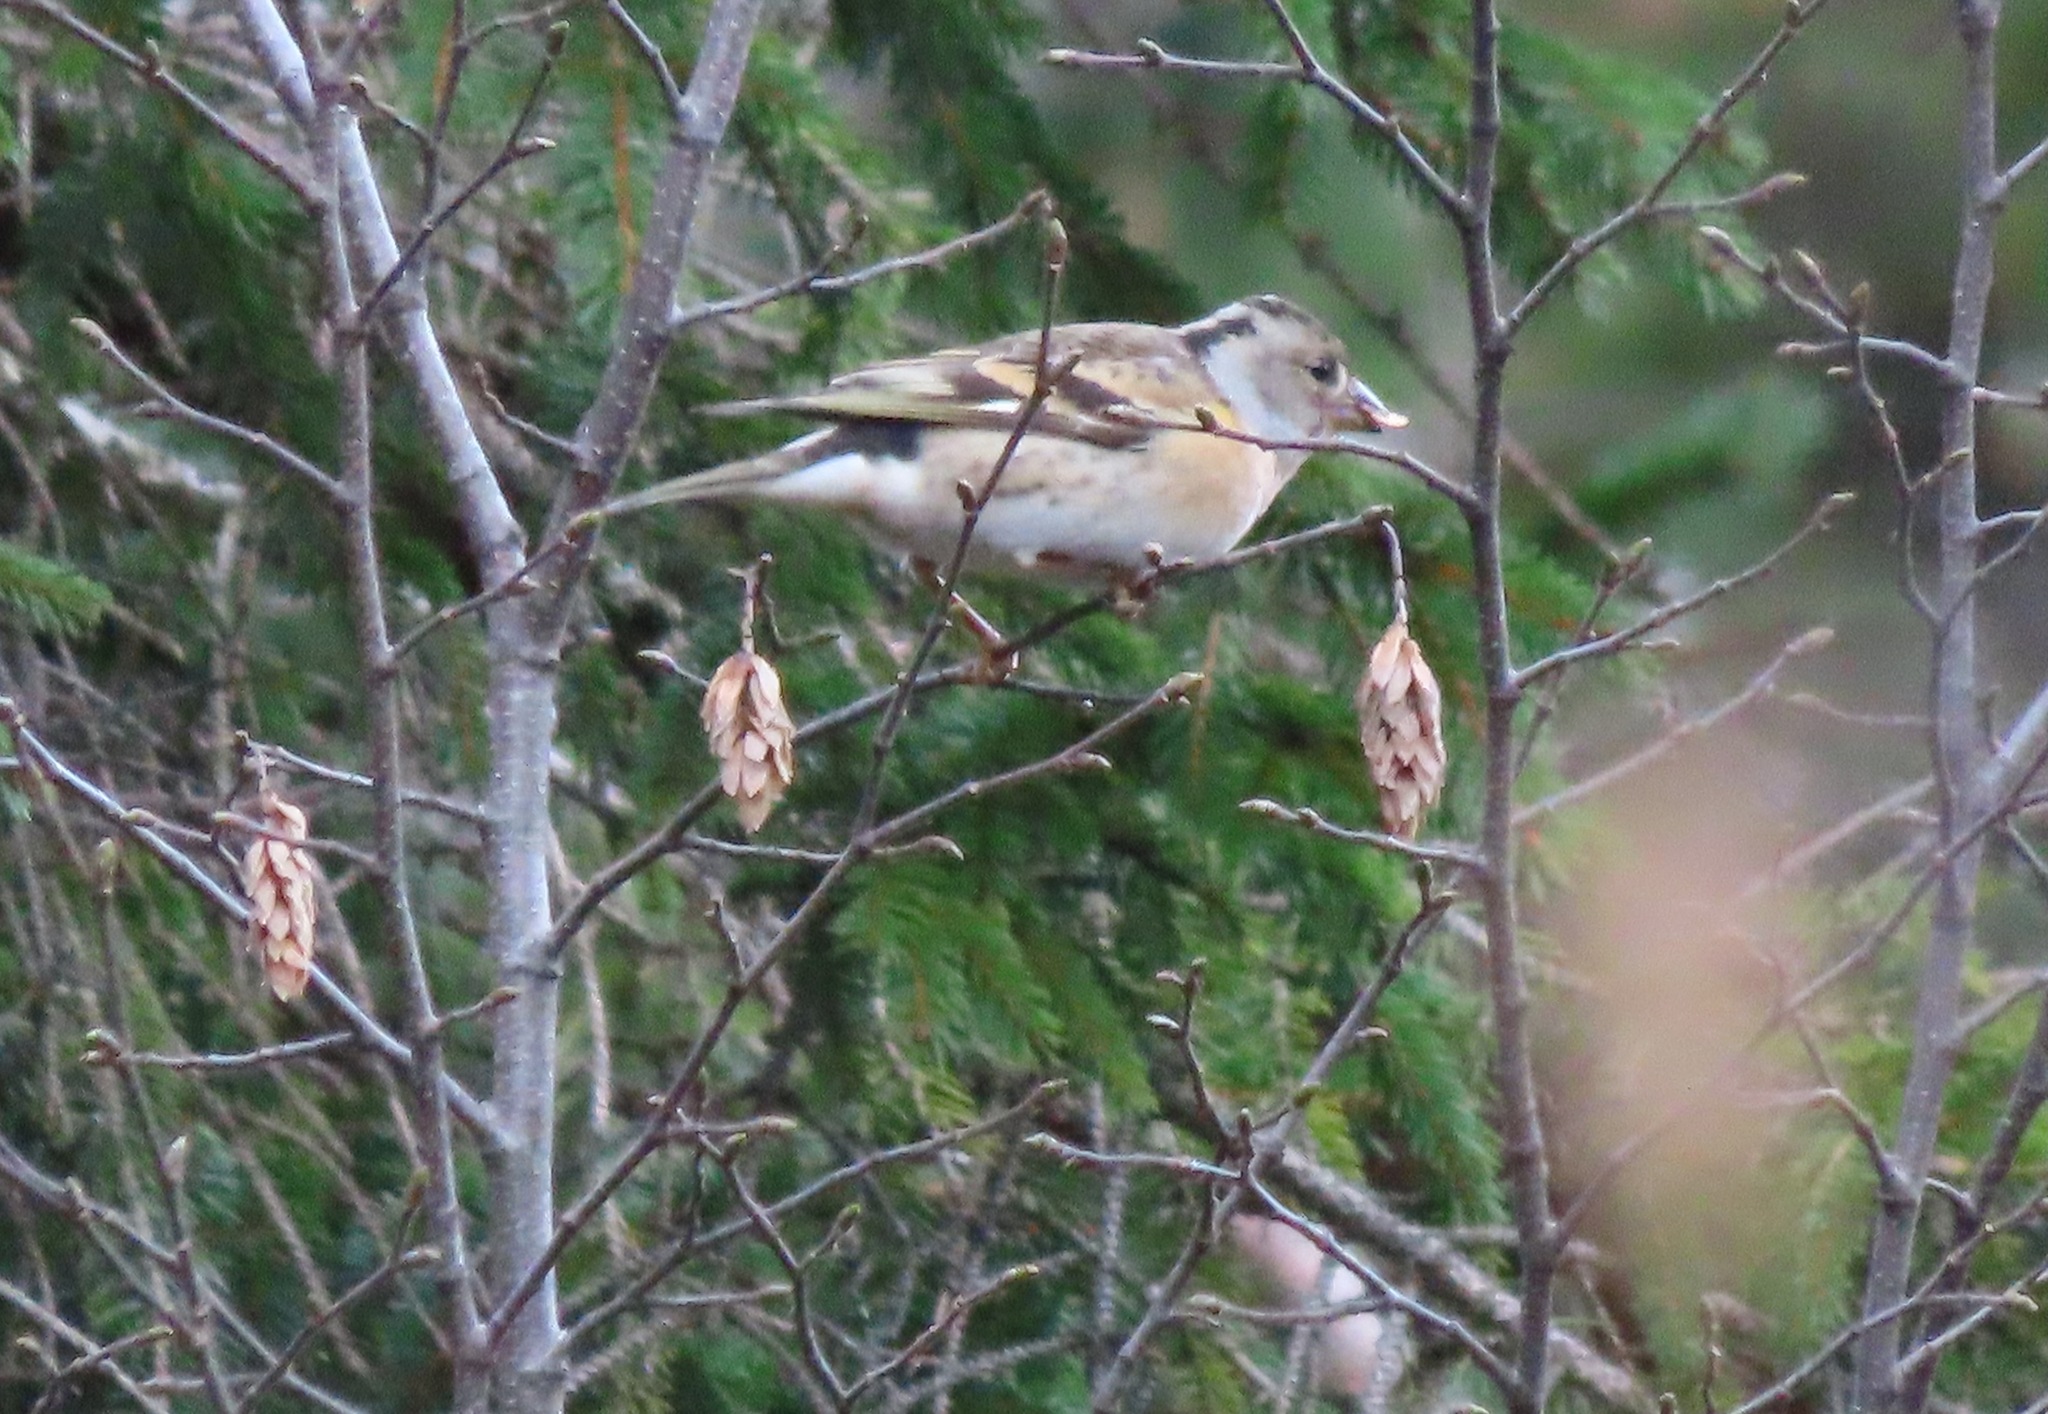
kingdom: Animalia
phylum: Chordata
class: Aves
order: Passeriformes
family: Fringillidae
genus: Fringilla
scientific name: Fringilla montifringilla
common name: Brambling
